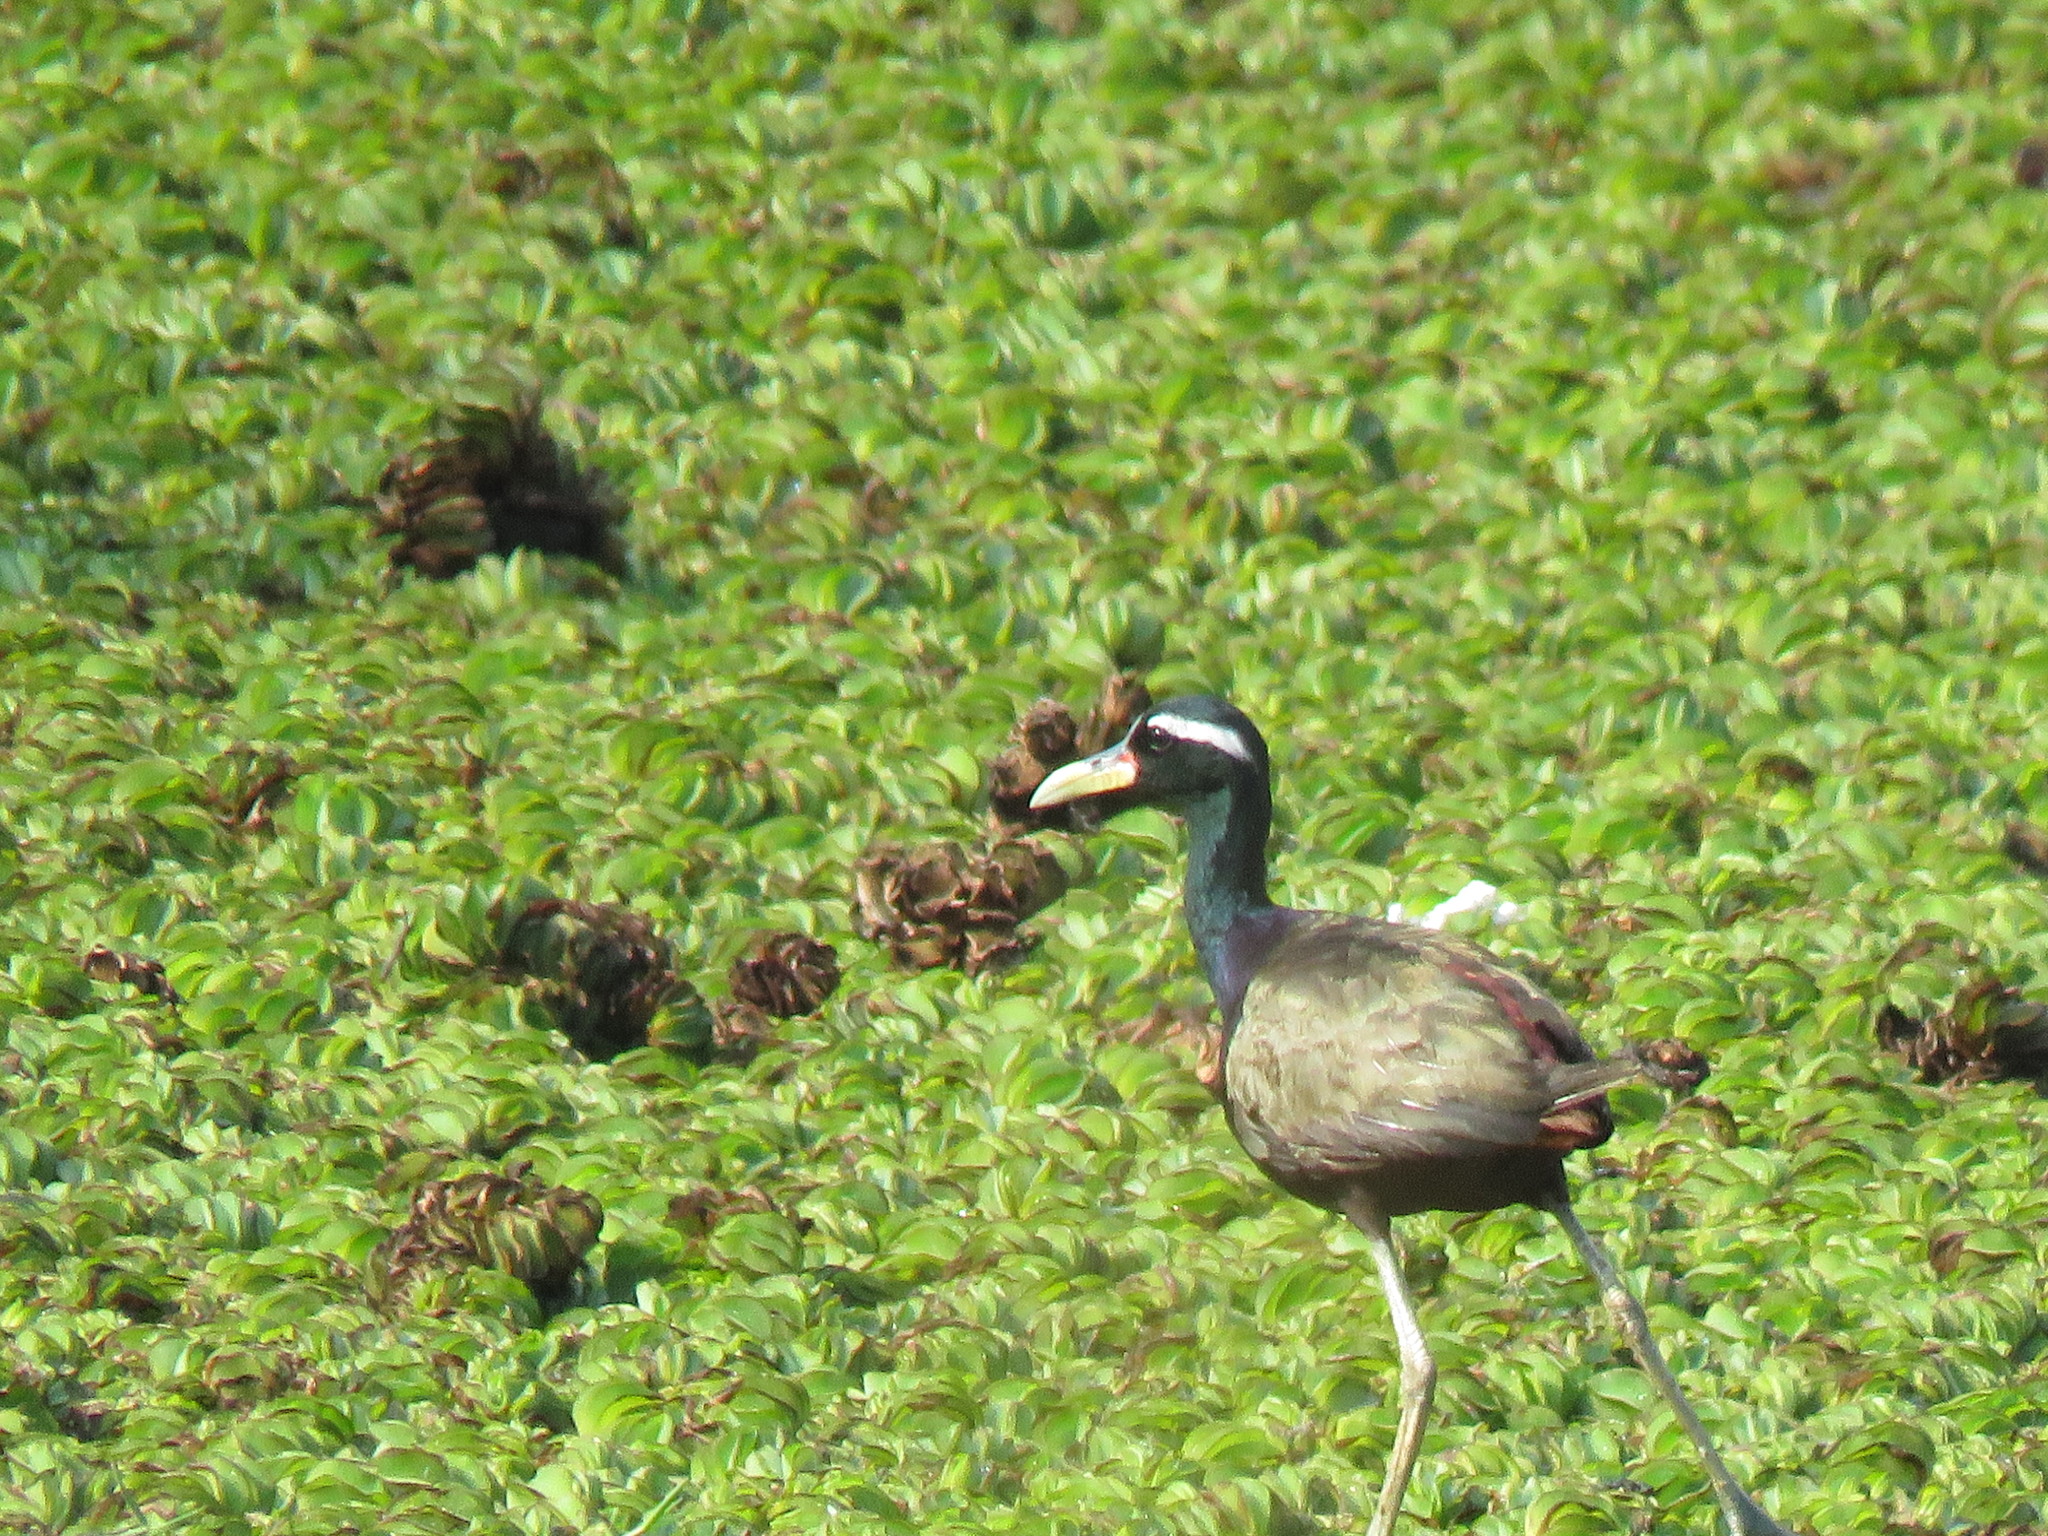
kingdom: Animalia
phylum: Chordata
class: Aves
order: Charadriiformes
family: Jacanidae
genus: Metopidius
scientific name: Metopidius indicus
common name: Bronze-winged jacana
